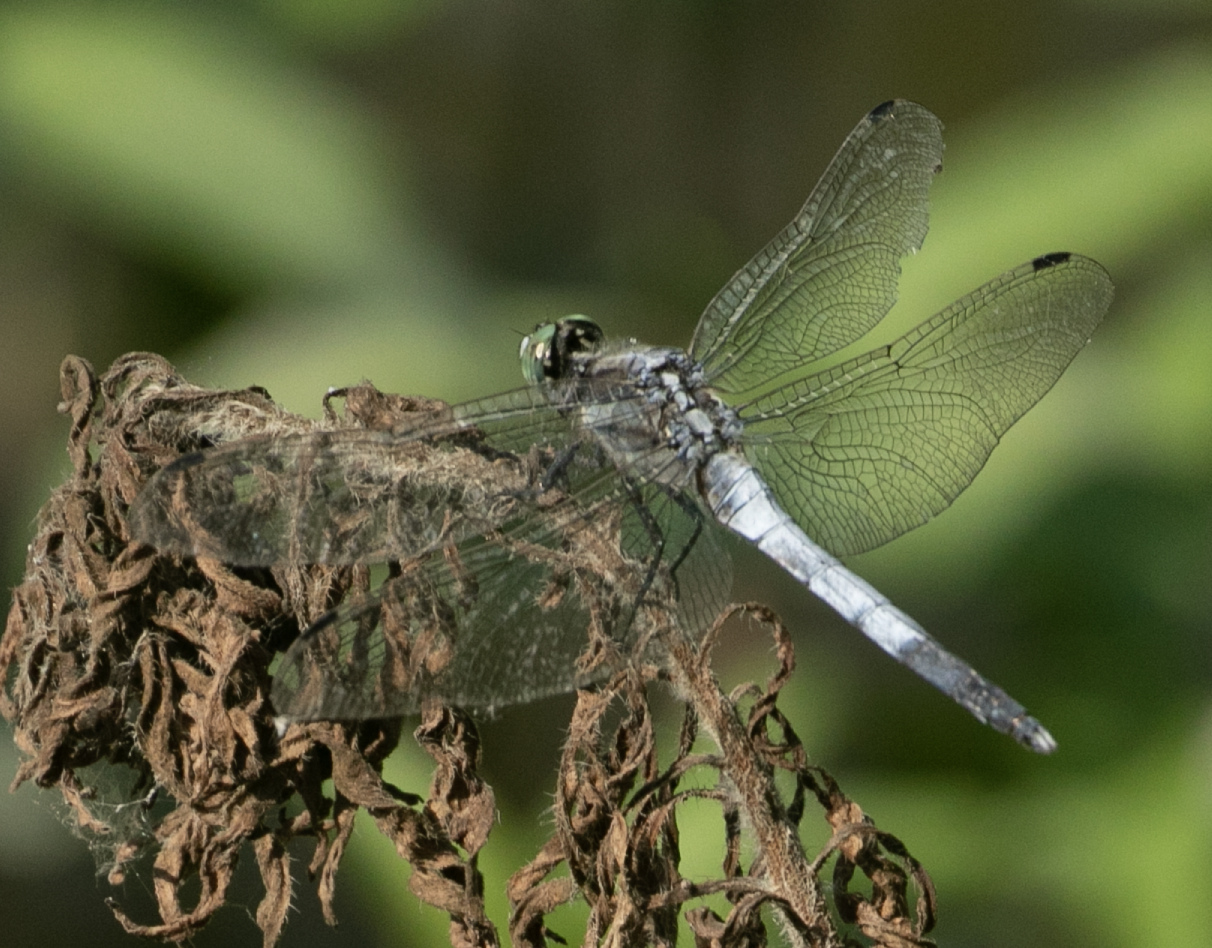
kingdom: Animalia
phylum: Arthropoda
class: Insecta
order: Odonata
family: Libellulidae
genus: Orthetrum
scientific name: Orthetrum albistylum
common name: White-tailed skimmer
